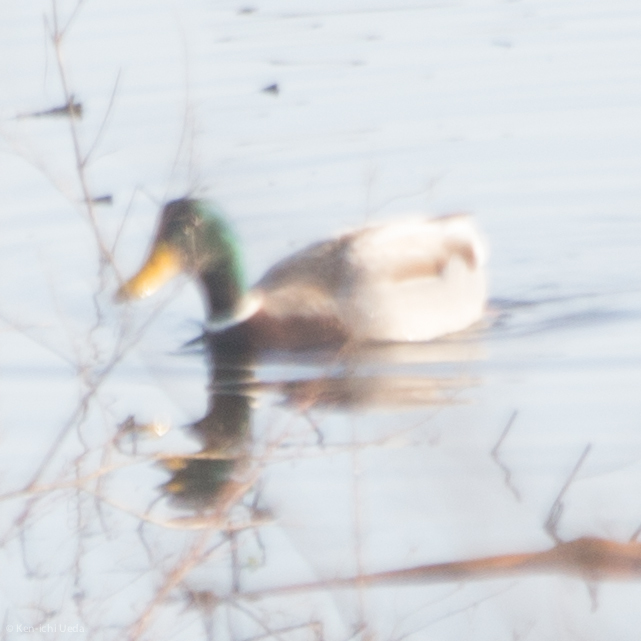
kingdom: Animalia
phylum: Chordata
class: Aves
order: Anseriformes
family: Anatidae
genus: Anas
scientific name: Anas platyrhynchos
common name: Mallard
